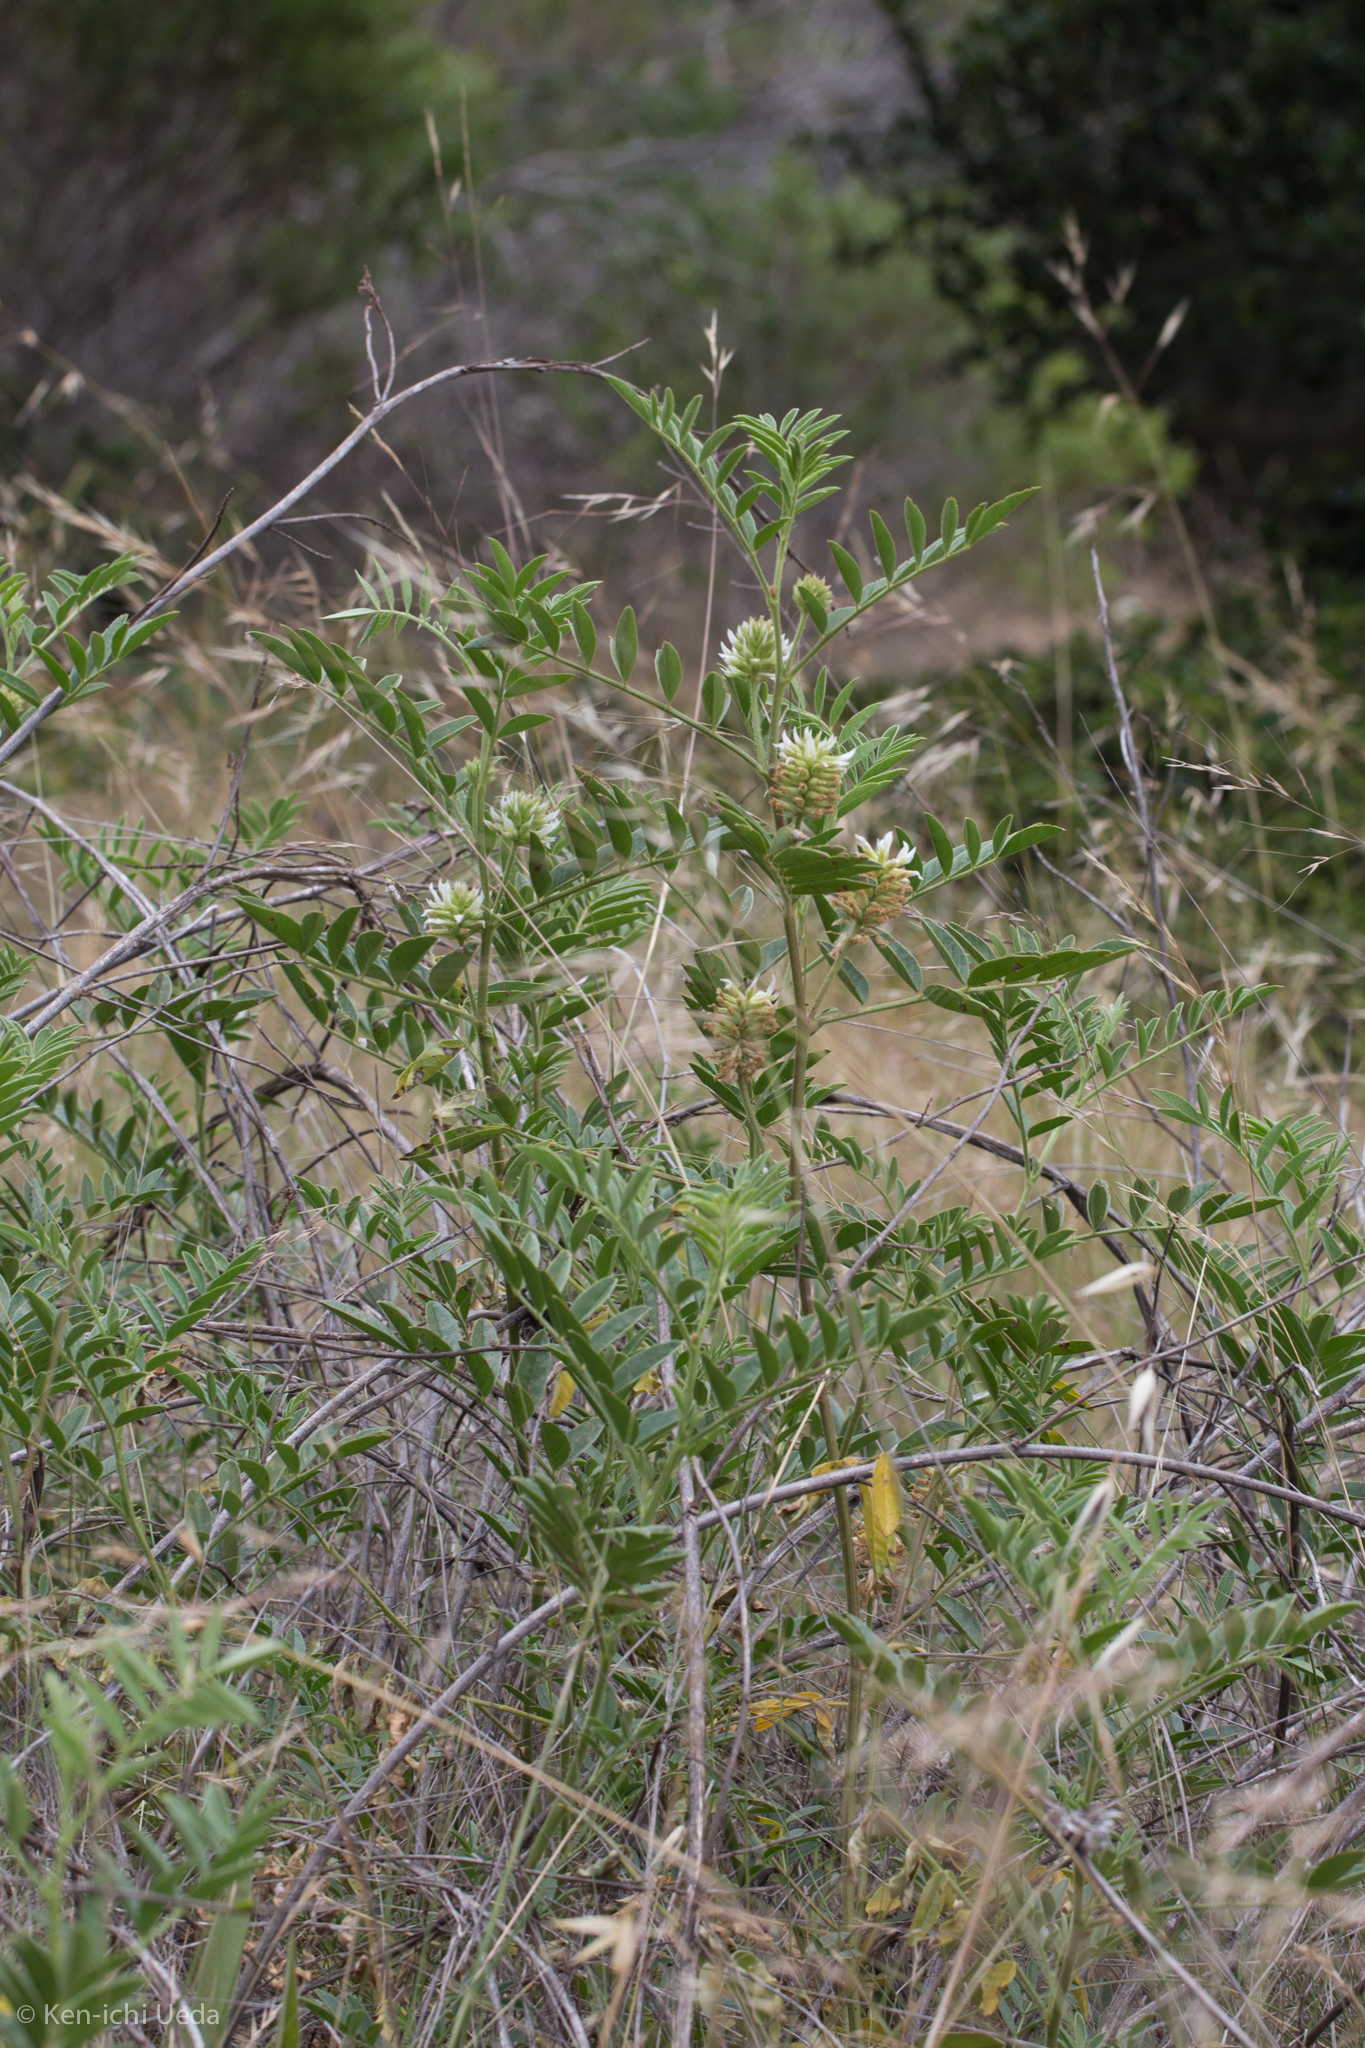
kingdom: Plantae
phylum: Tracheophyta
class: Magnoliopsida
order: Fabales
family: Fabaceae
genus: Glycyrrhiza
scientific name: Glycyrrhiza lepidota
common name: American liquorice
